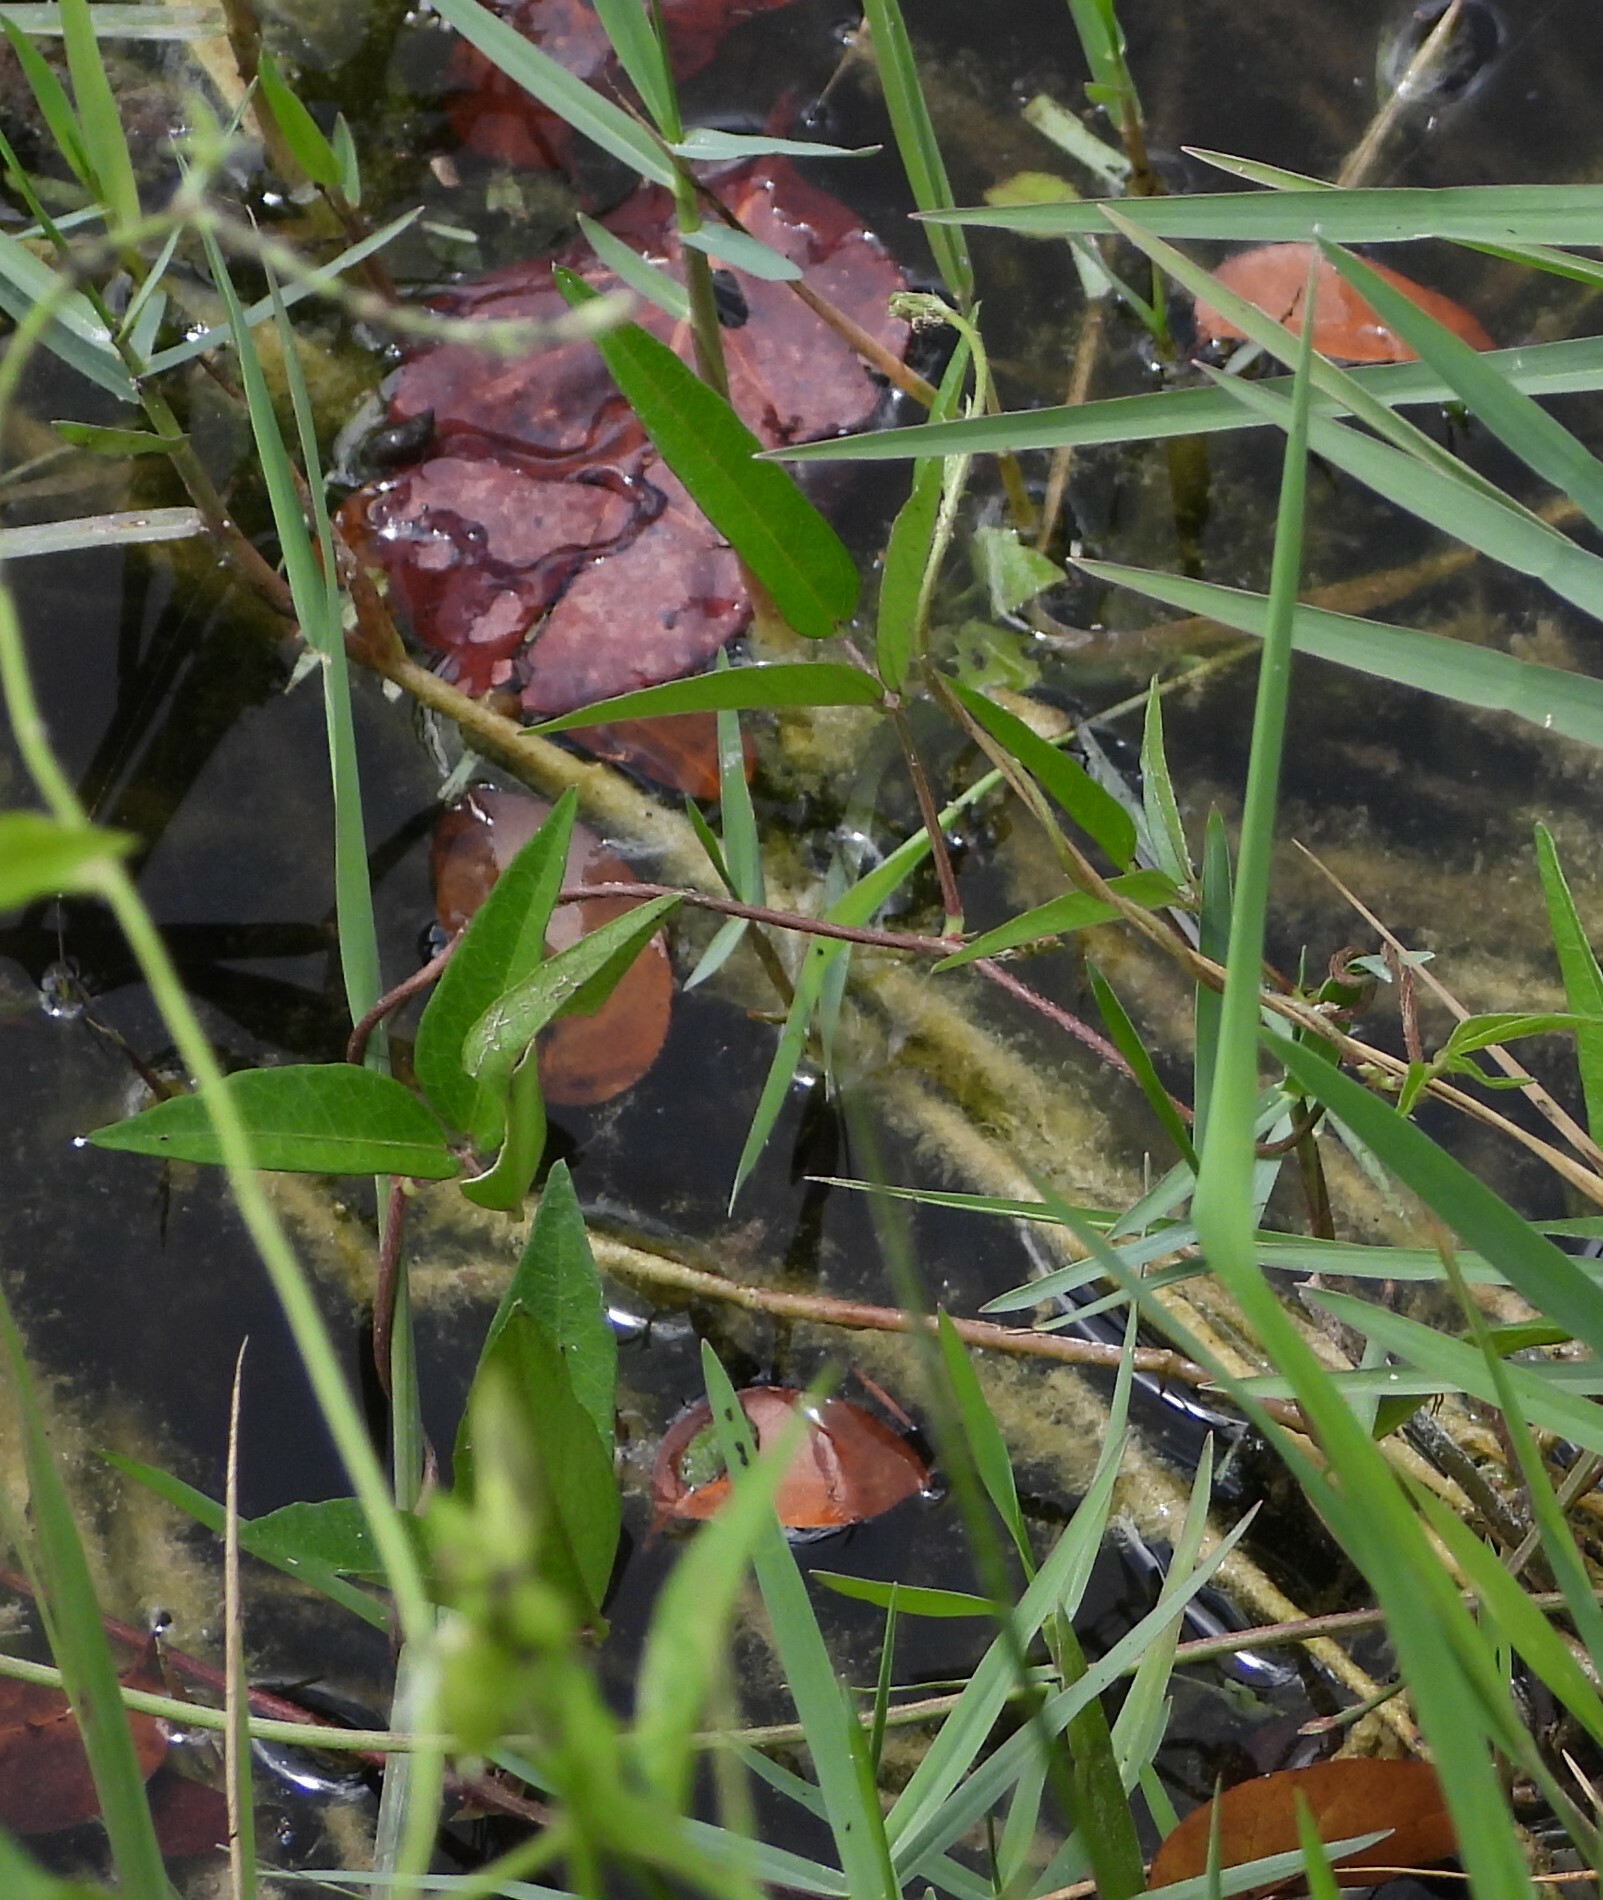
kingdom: Plantae
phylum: Tracheophyta
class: Magnoliopsida
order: Fabales
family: Fabaceae
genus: Vigna
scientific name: Vigna luteola
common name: Hairypod cowpea
